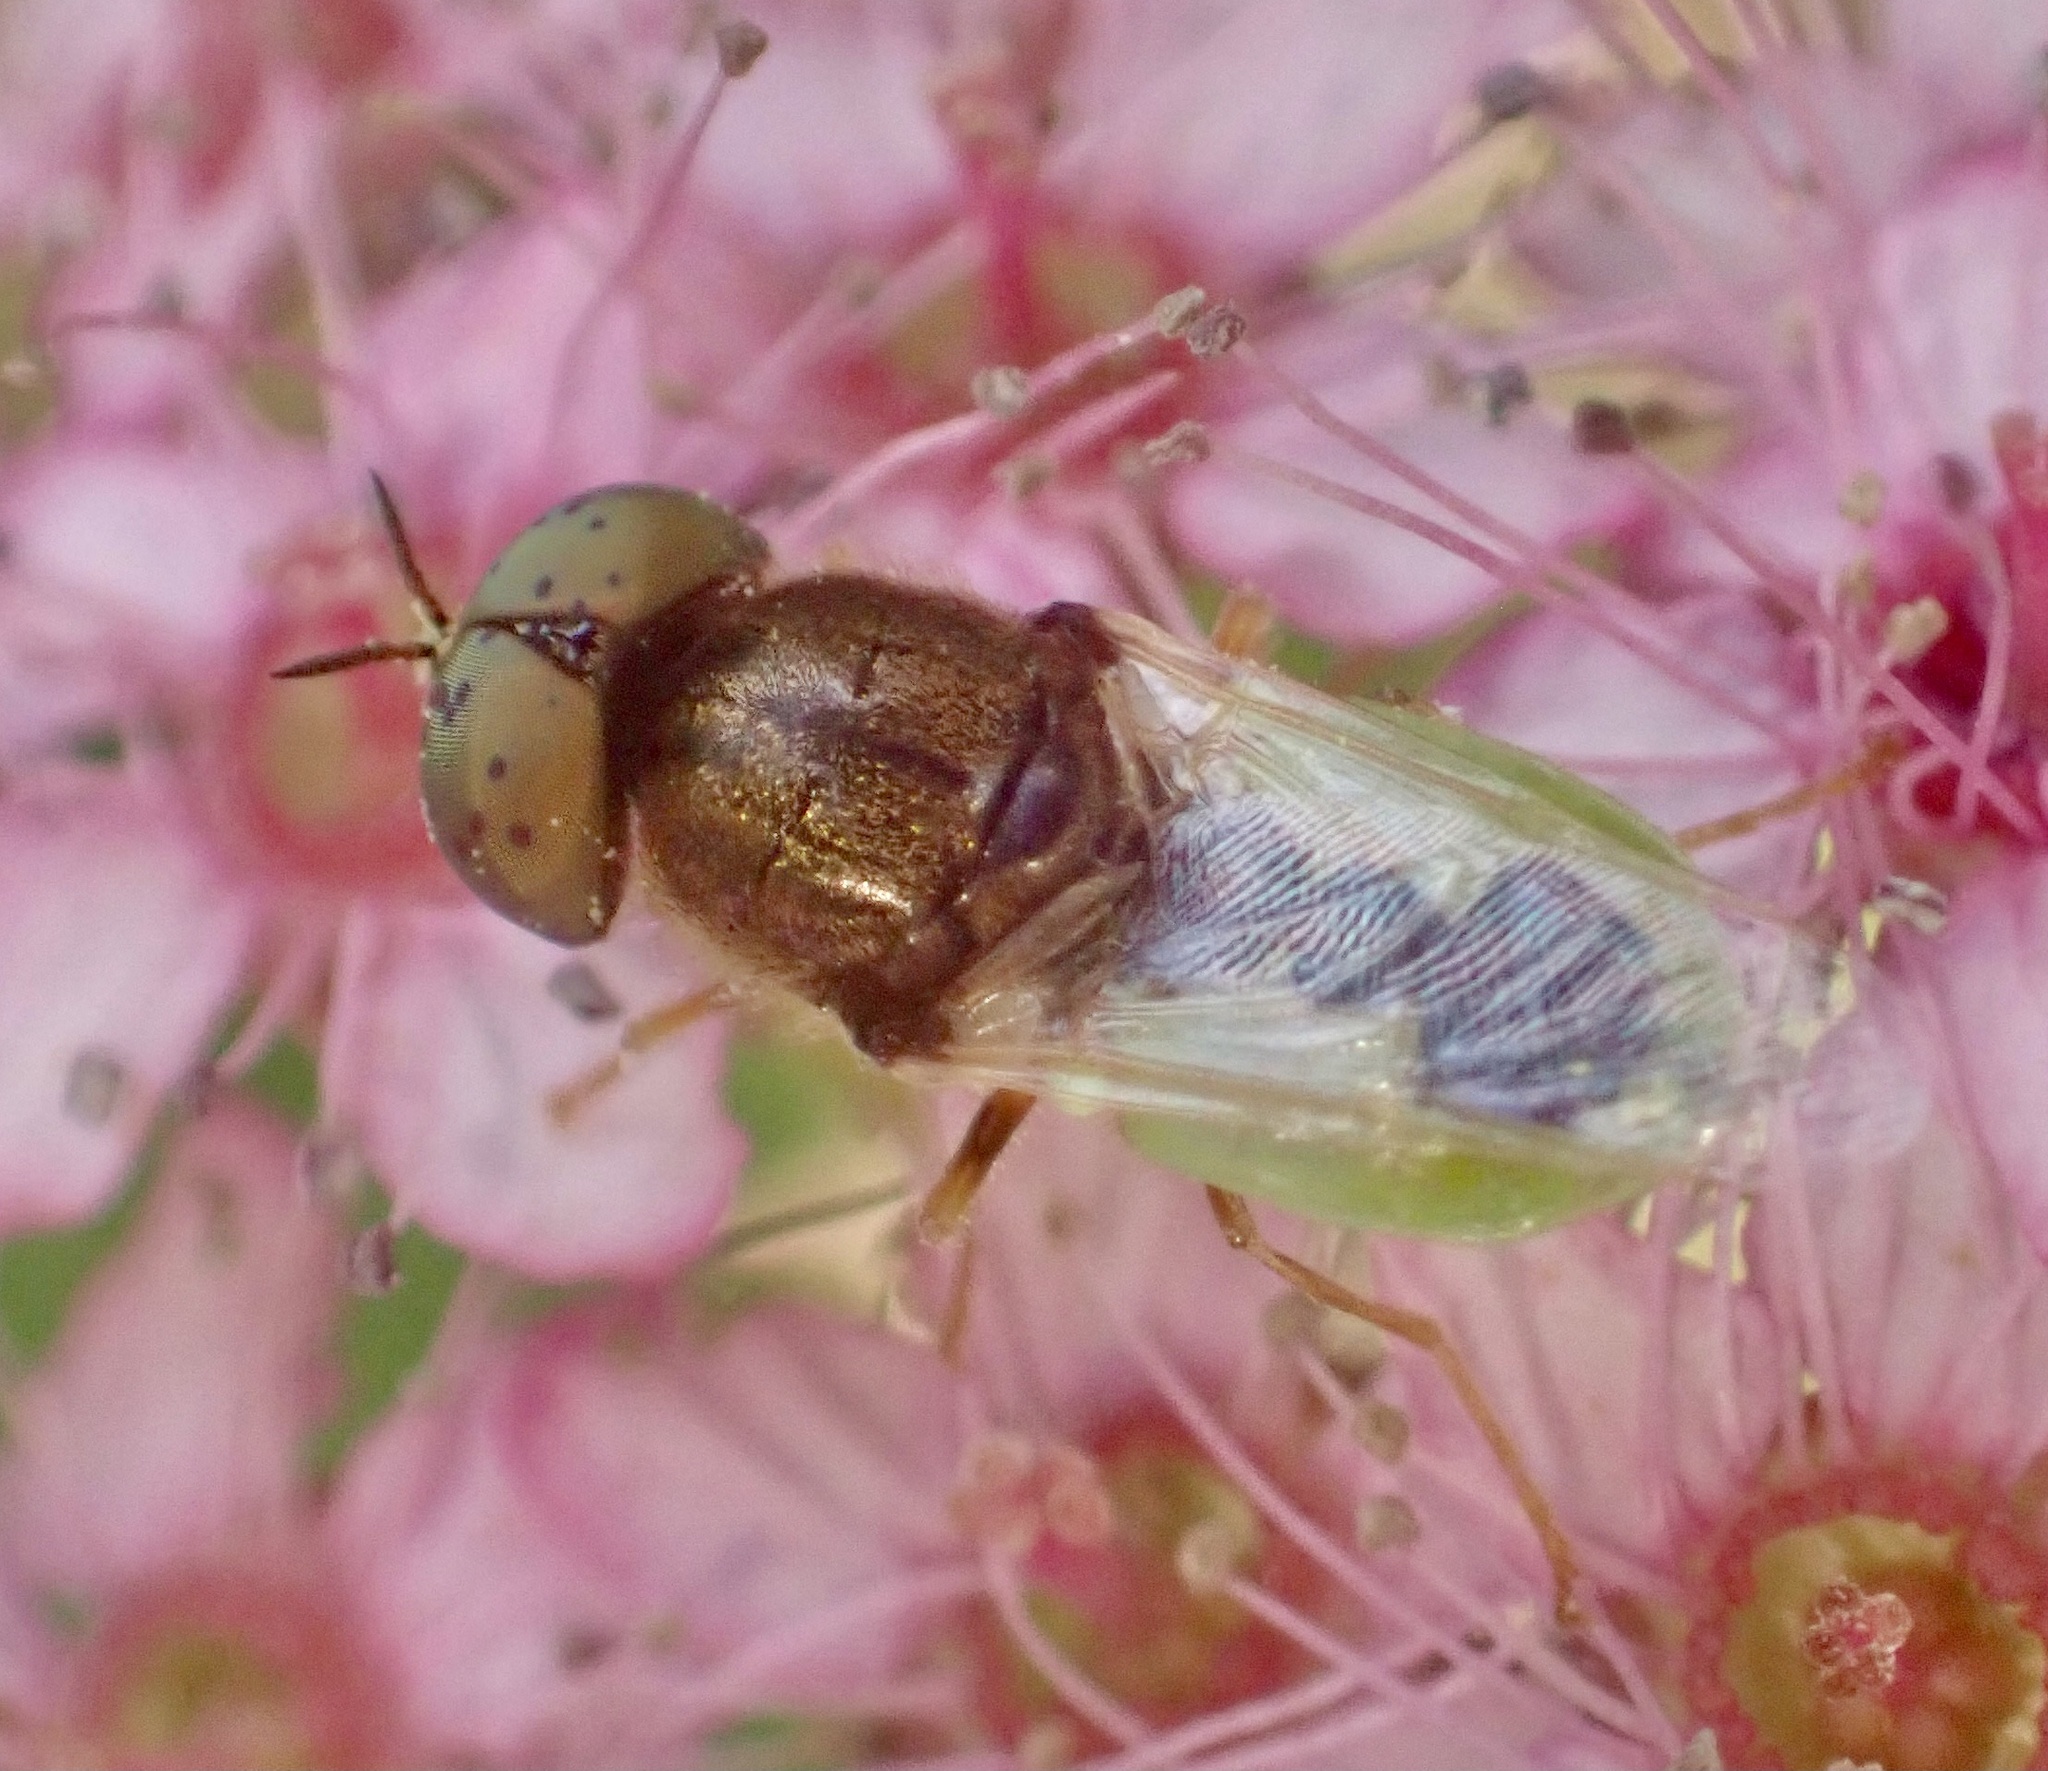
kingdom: Animalia
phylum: Arthropoda
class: Insecta
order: Diptera
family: Stratiomyidae
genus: Oplodontha
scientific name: Oplodontha viridula
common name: Common green colonel
